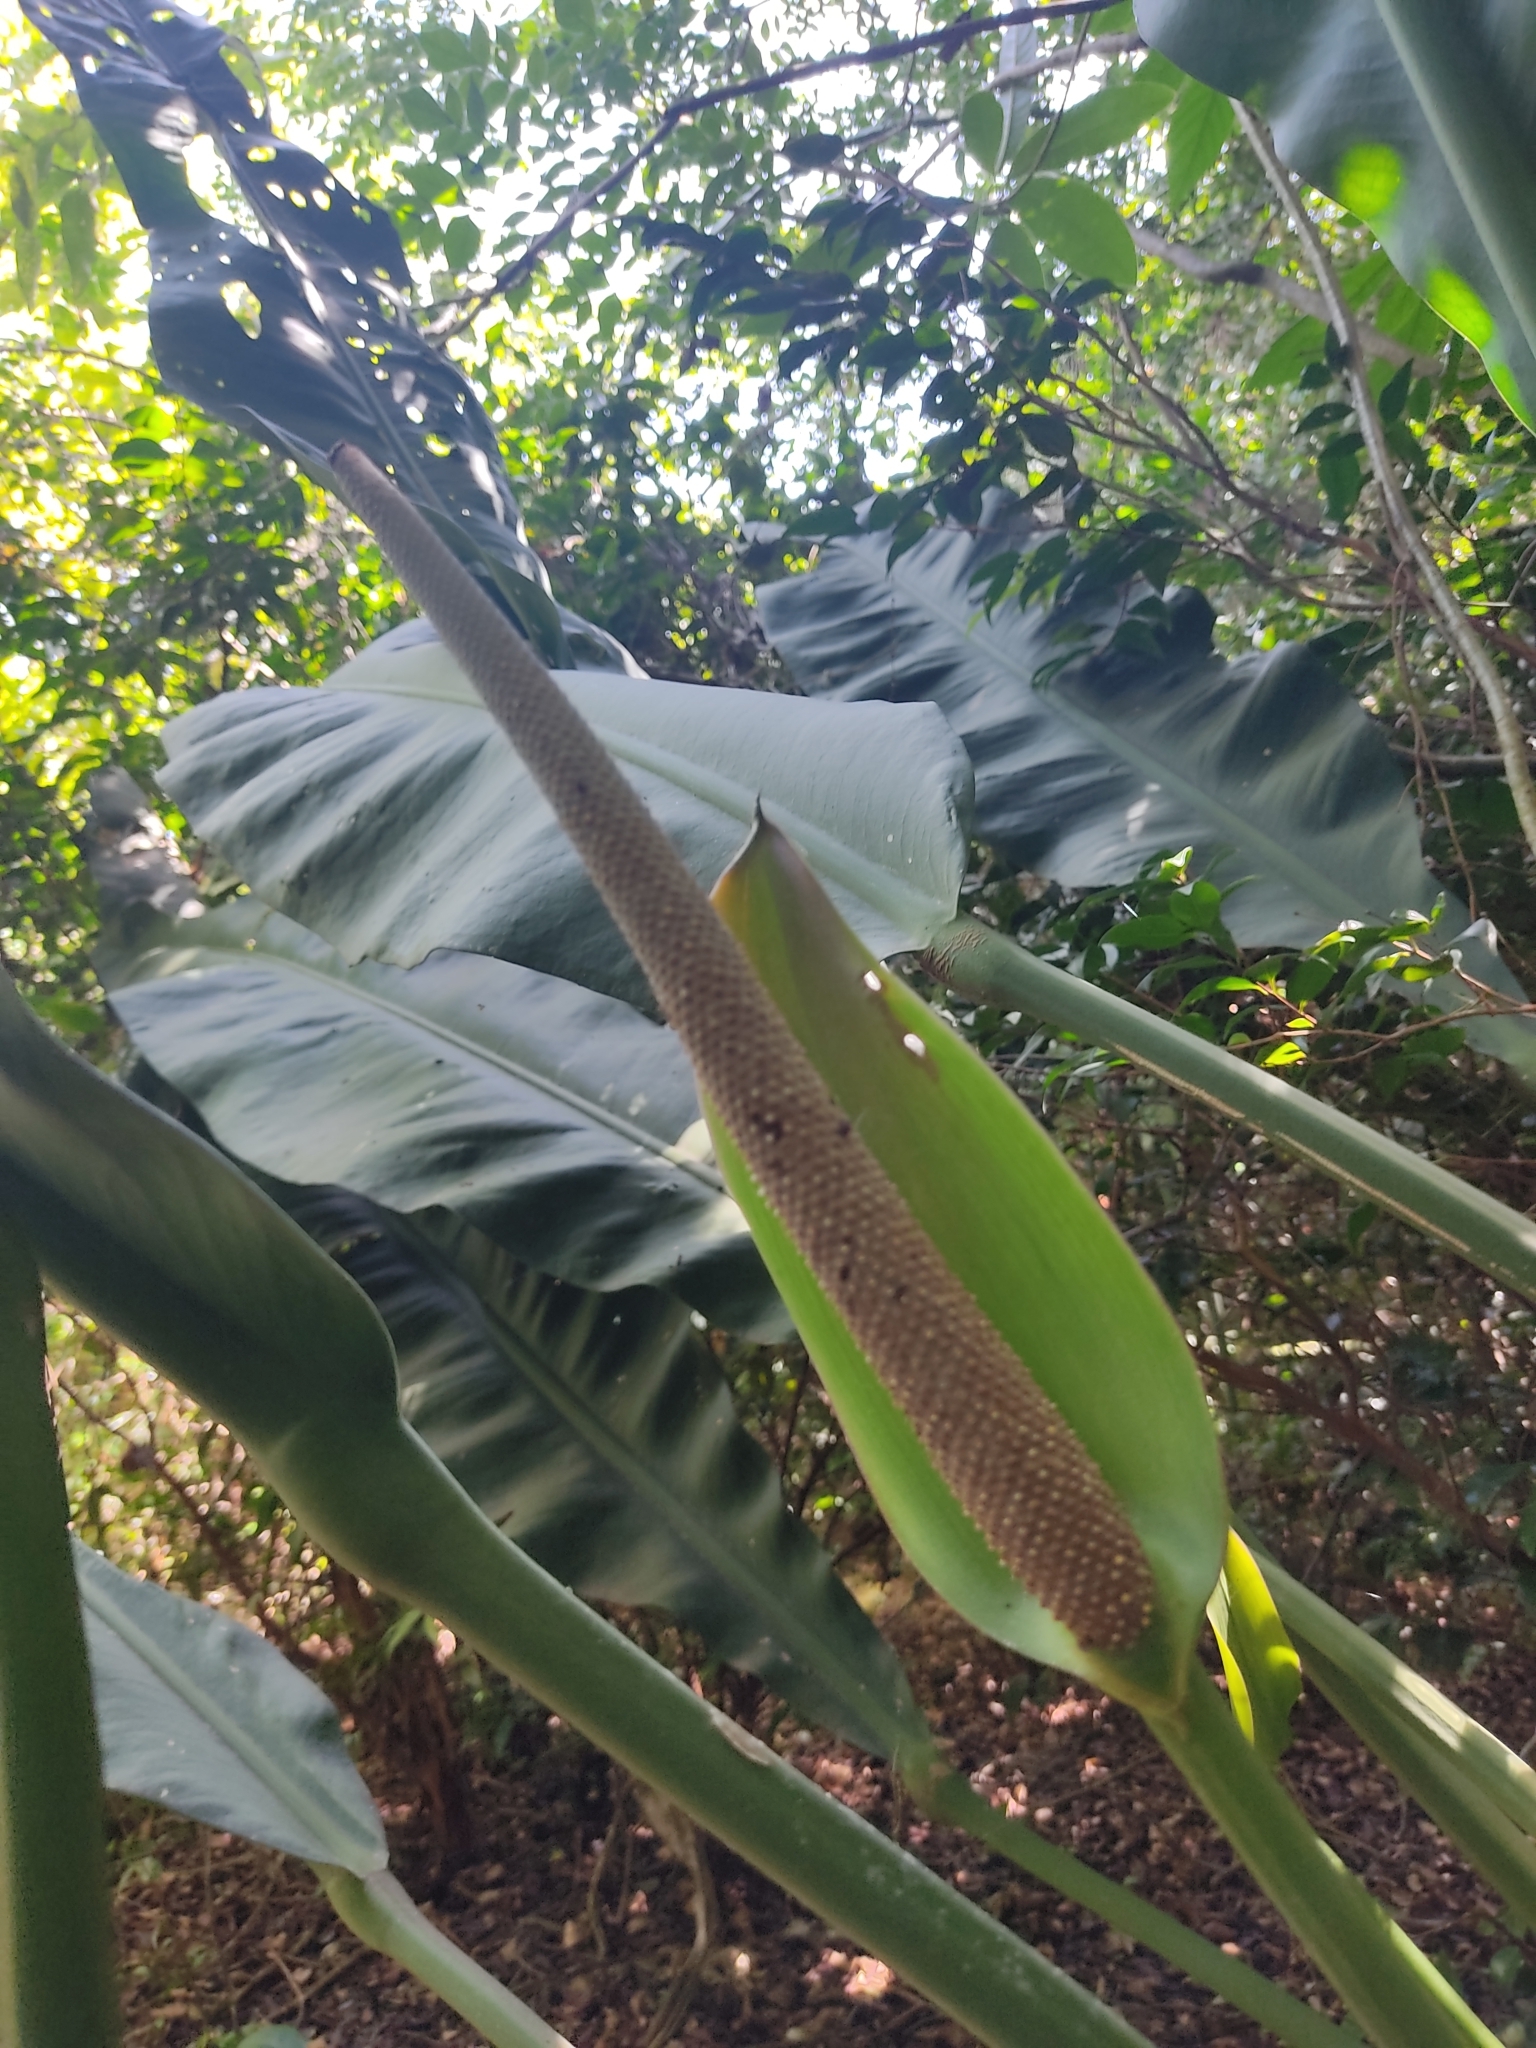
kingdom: Plantae
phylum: Tracheophyta
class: Liliopsida
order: Alismatales
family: Araceae
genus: Anthurium
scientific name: Anthurium coriaceum
